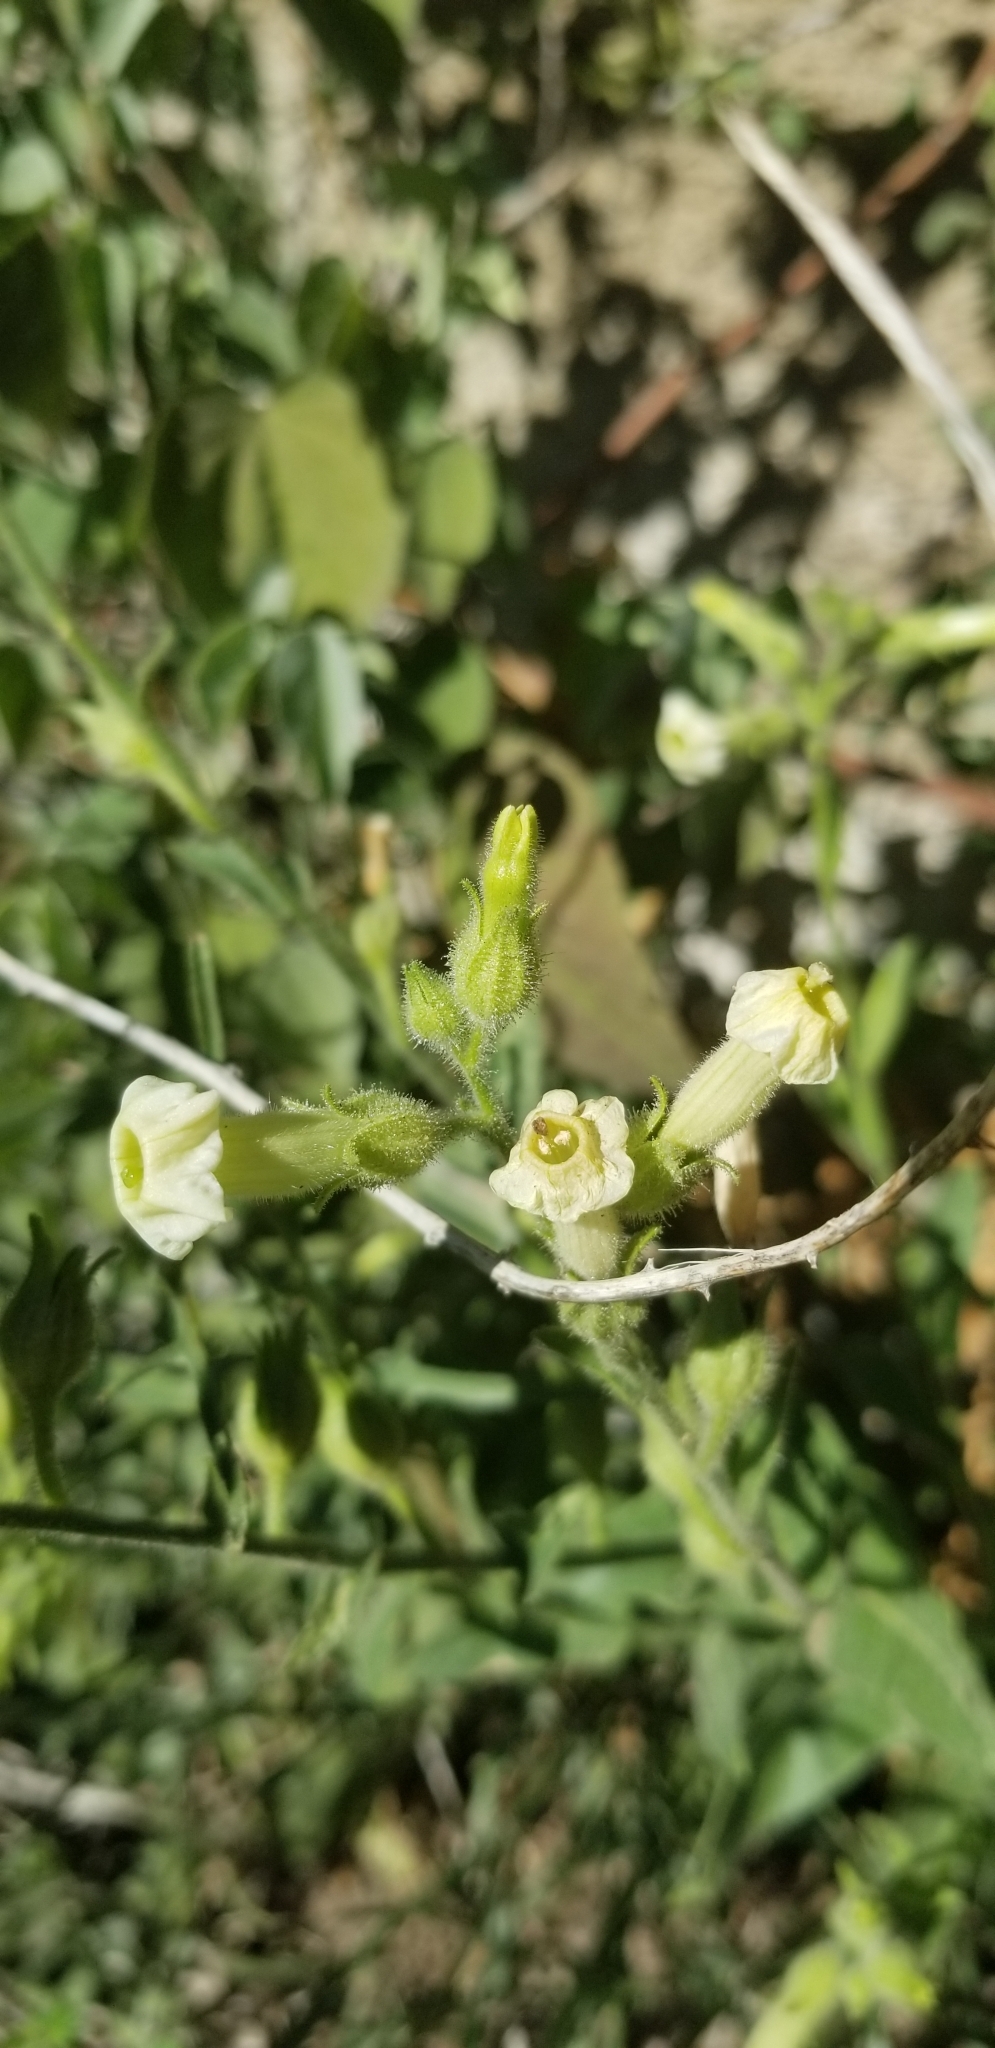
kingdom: Plantae
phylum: Tracheophyta
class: Magnoliopsida
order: Solanales
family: Solanaceae
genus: Nicotiana
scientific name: Nicotiana obtusifolia
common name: Desert tobacco
